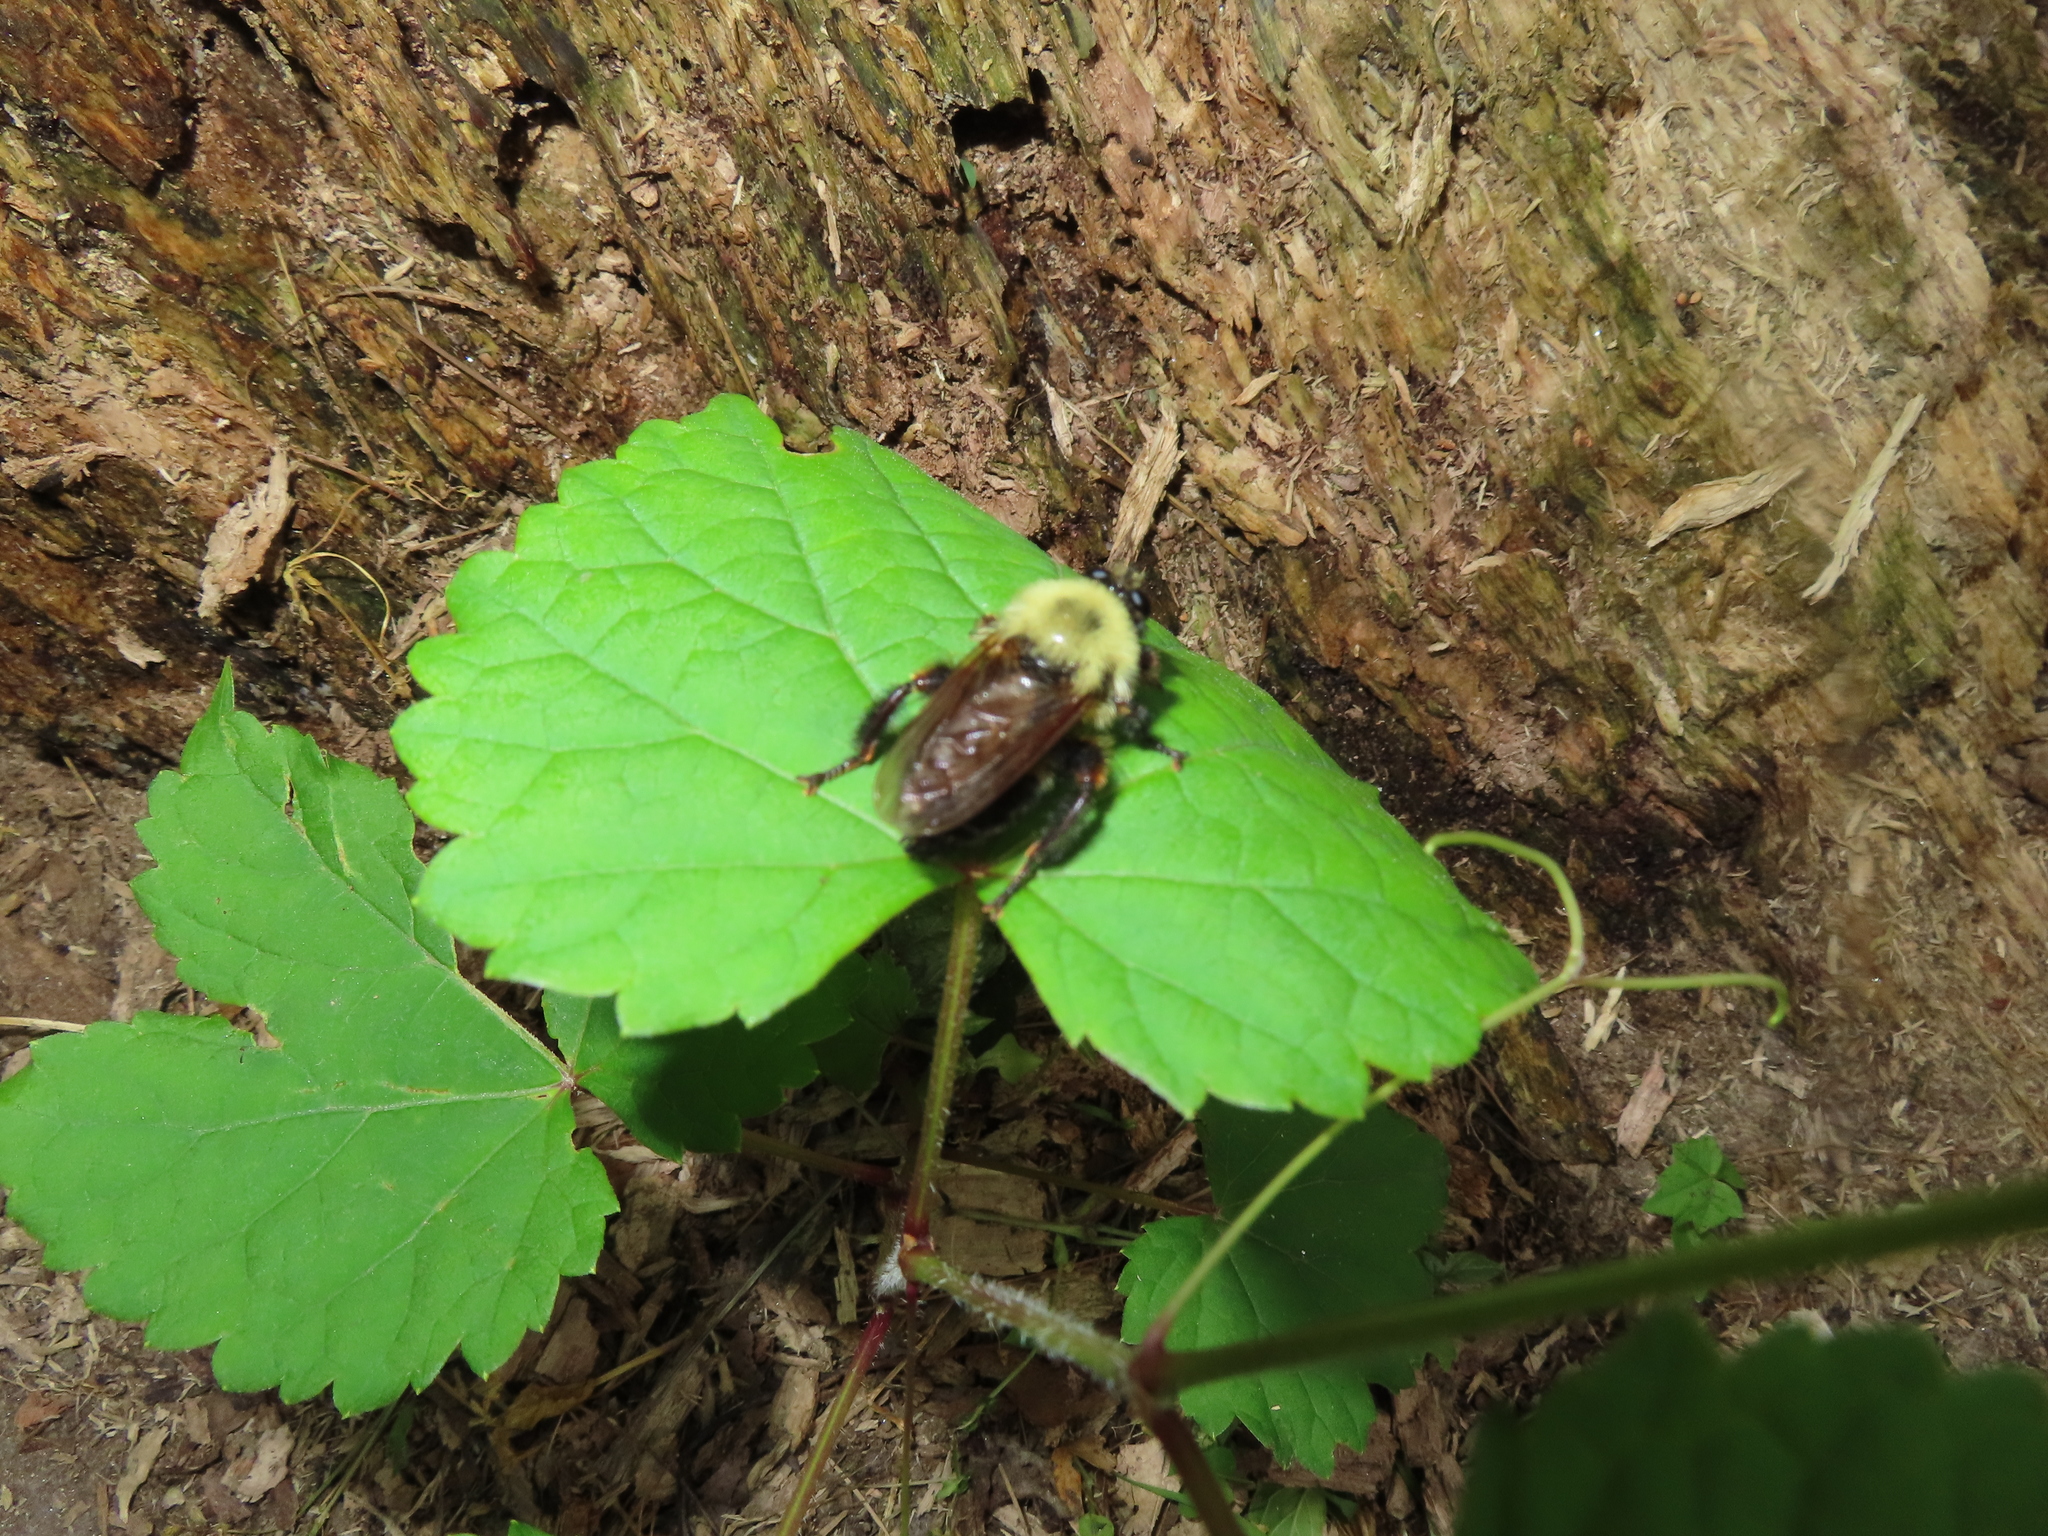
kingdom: Animalia
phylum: Arthropoda
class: Insecta
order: Diptera
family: Asilidae
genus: Laphria
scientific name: Laphria thoracica
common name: Bumble bee mimic robber fly
